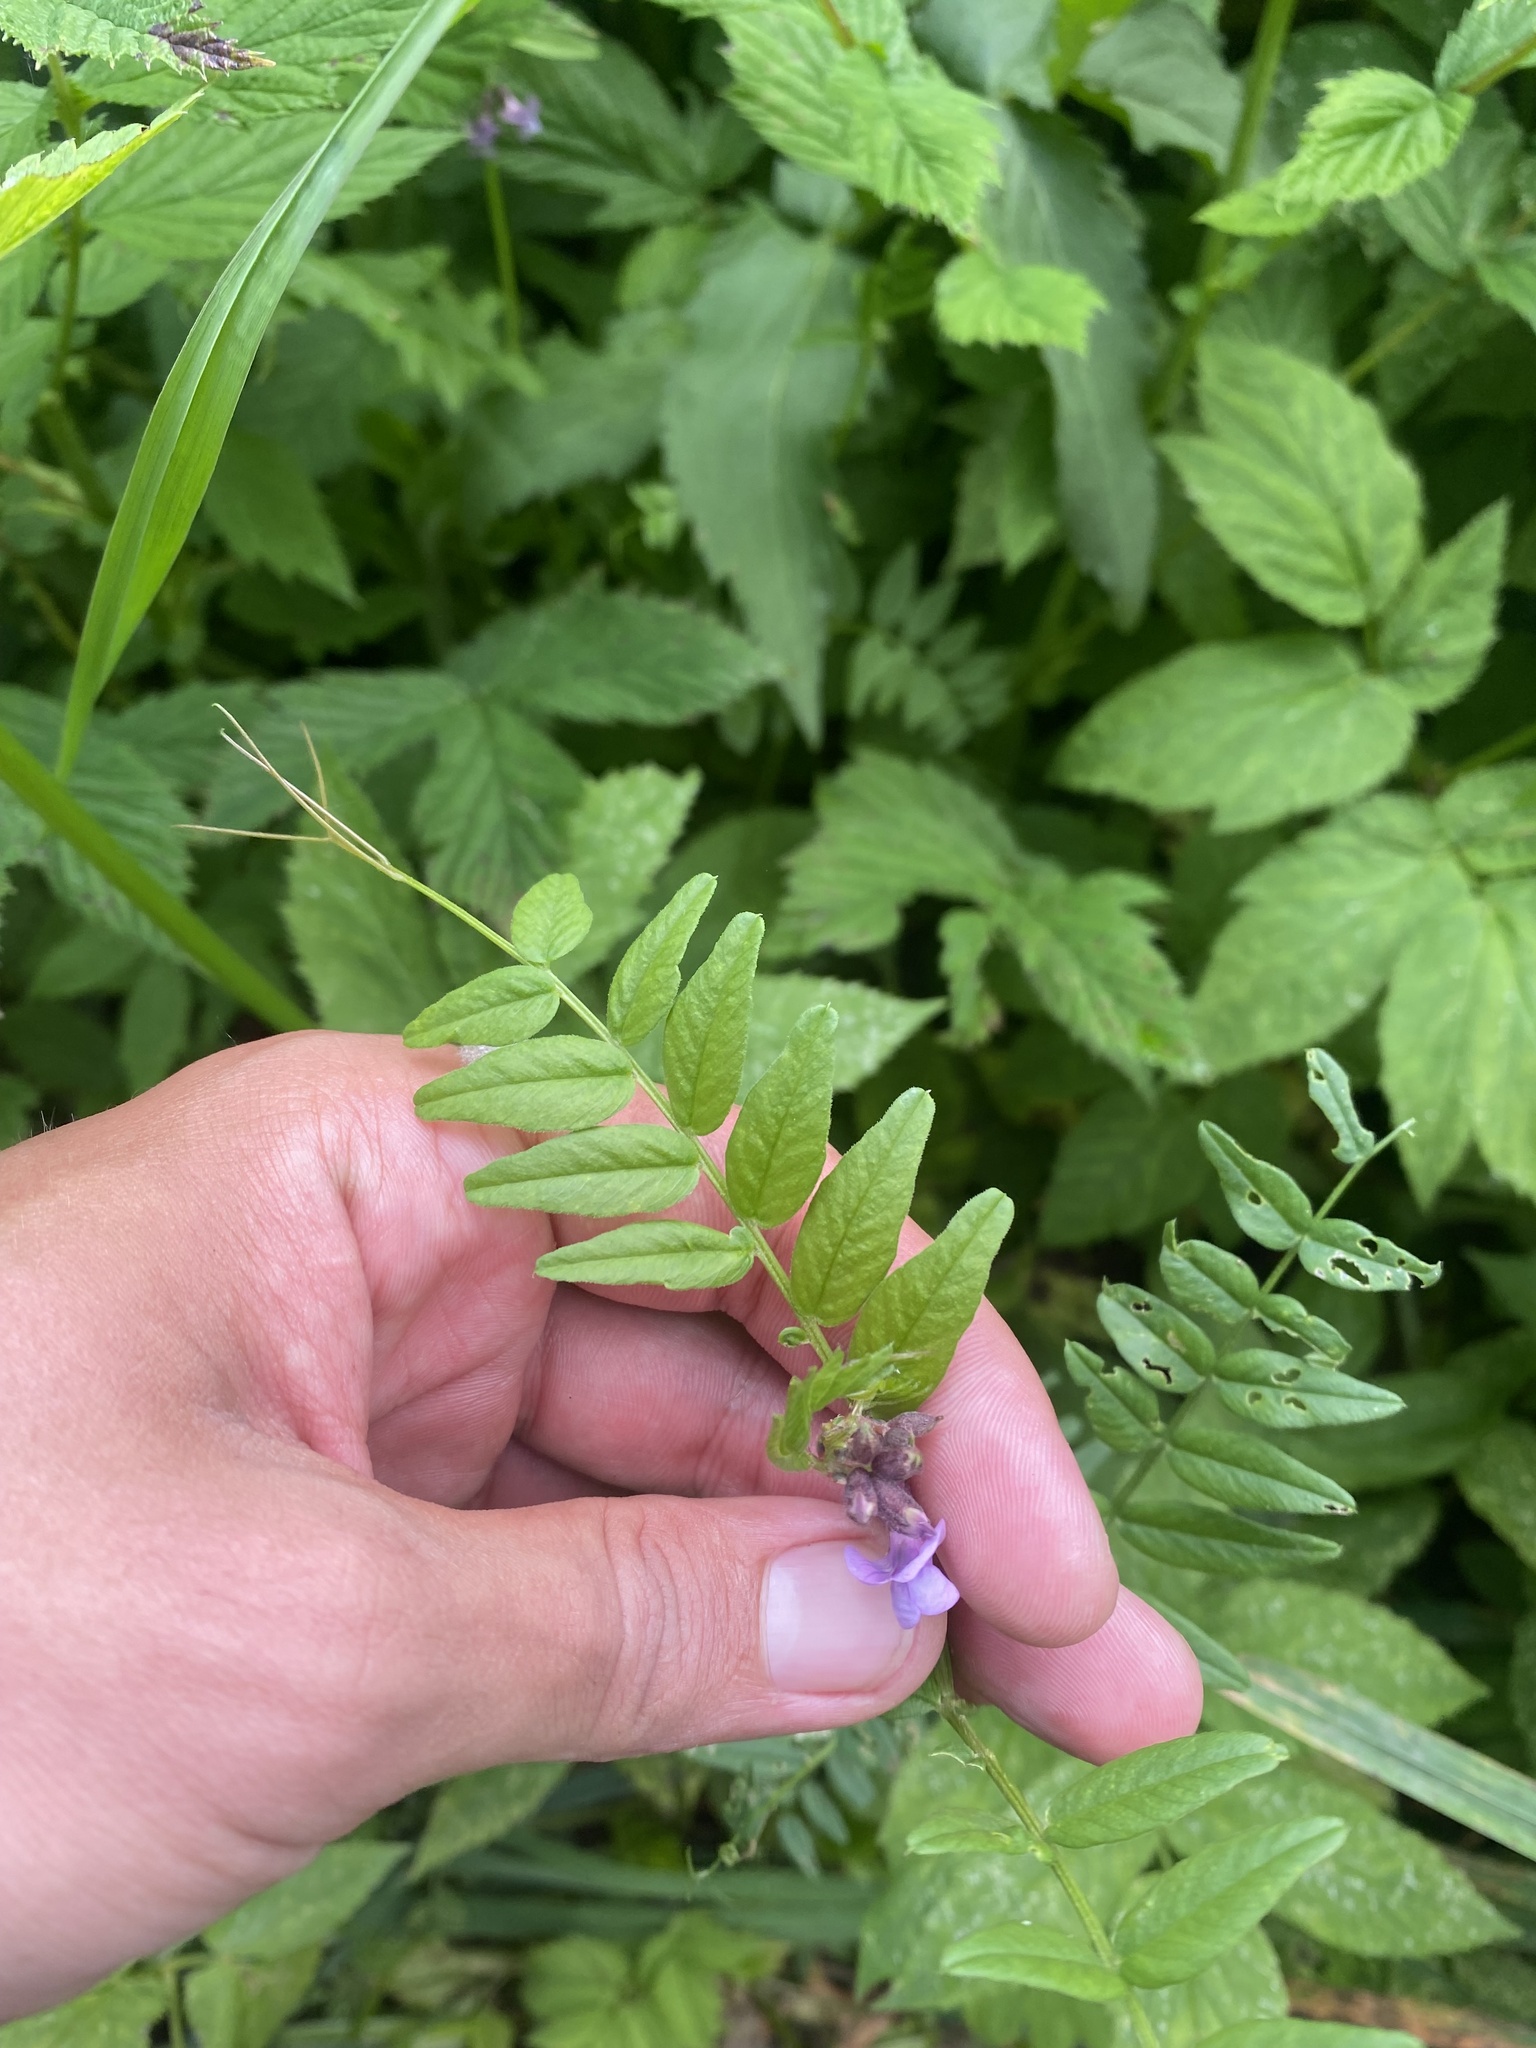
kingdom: Plantae
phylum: Tracheophyta
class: Magnoliopsida
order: Fabales
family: Fabaceae
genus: Vicia
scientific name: Vicia sepium
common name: Bush vetch
